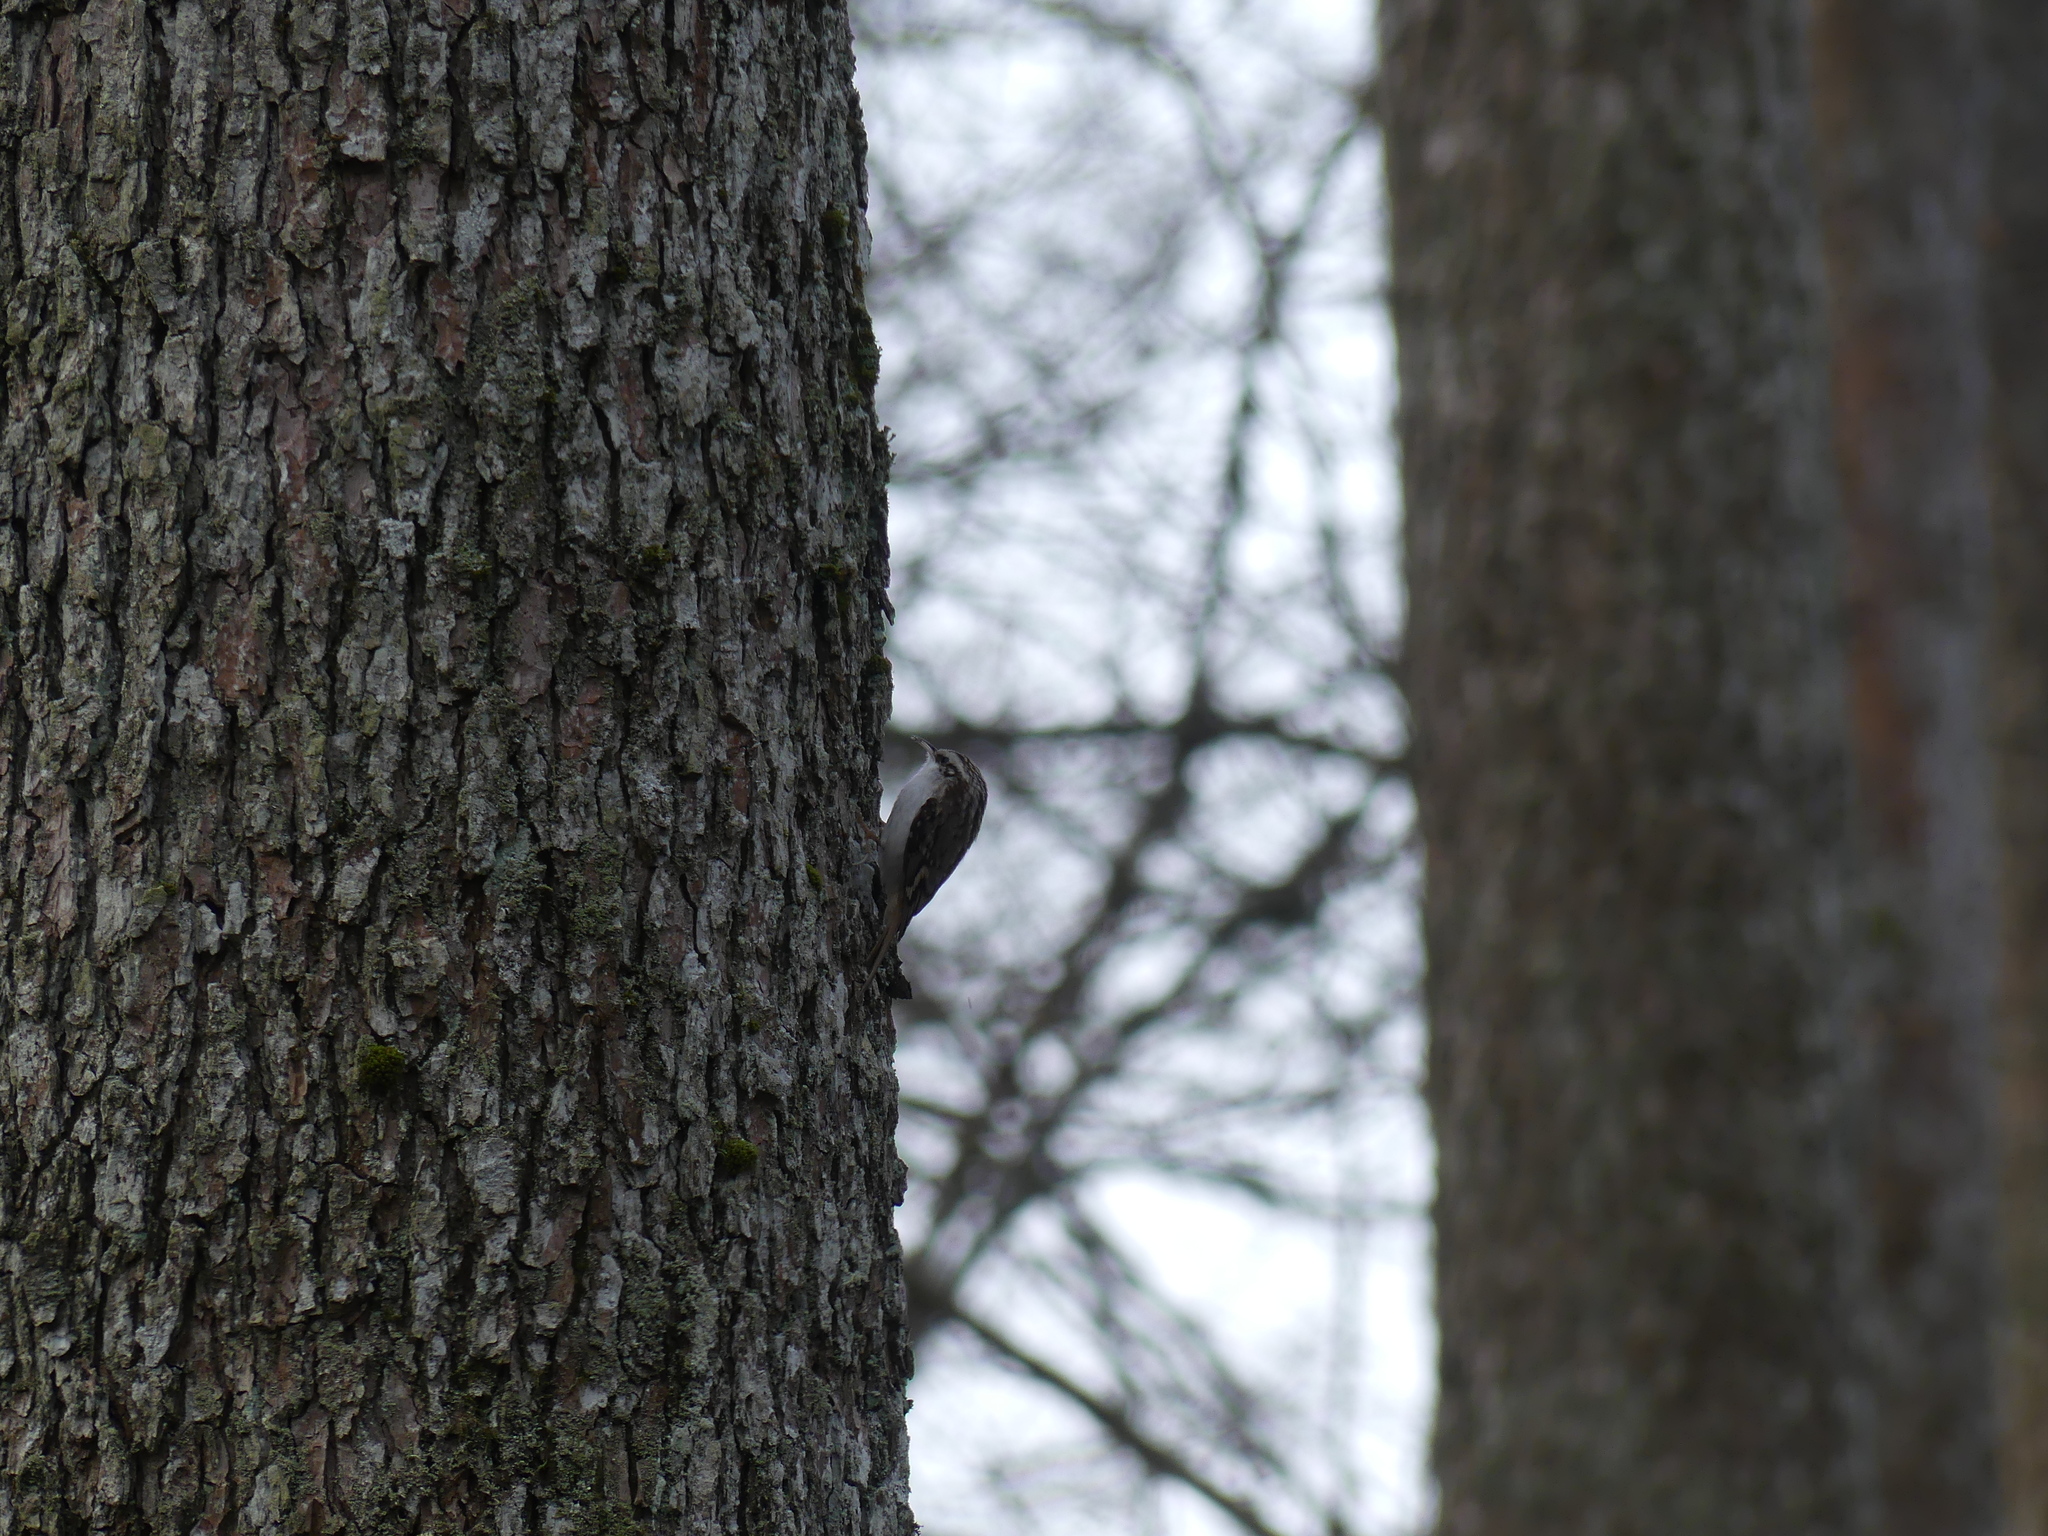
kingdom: Animalia
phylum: Chordata
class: Aves
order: Passeriformes
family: Certhiidae
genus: Certhia
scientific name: Certhia familiaris
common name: Eurasian treecreeper
